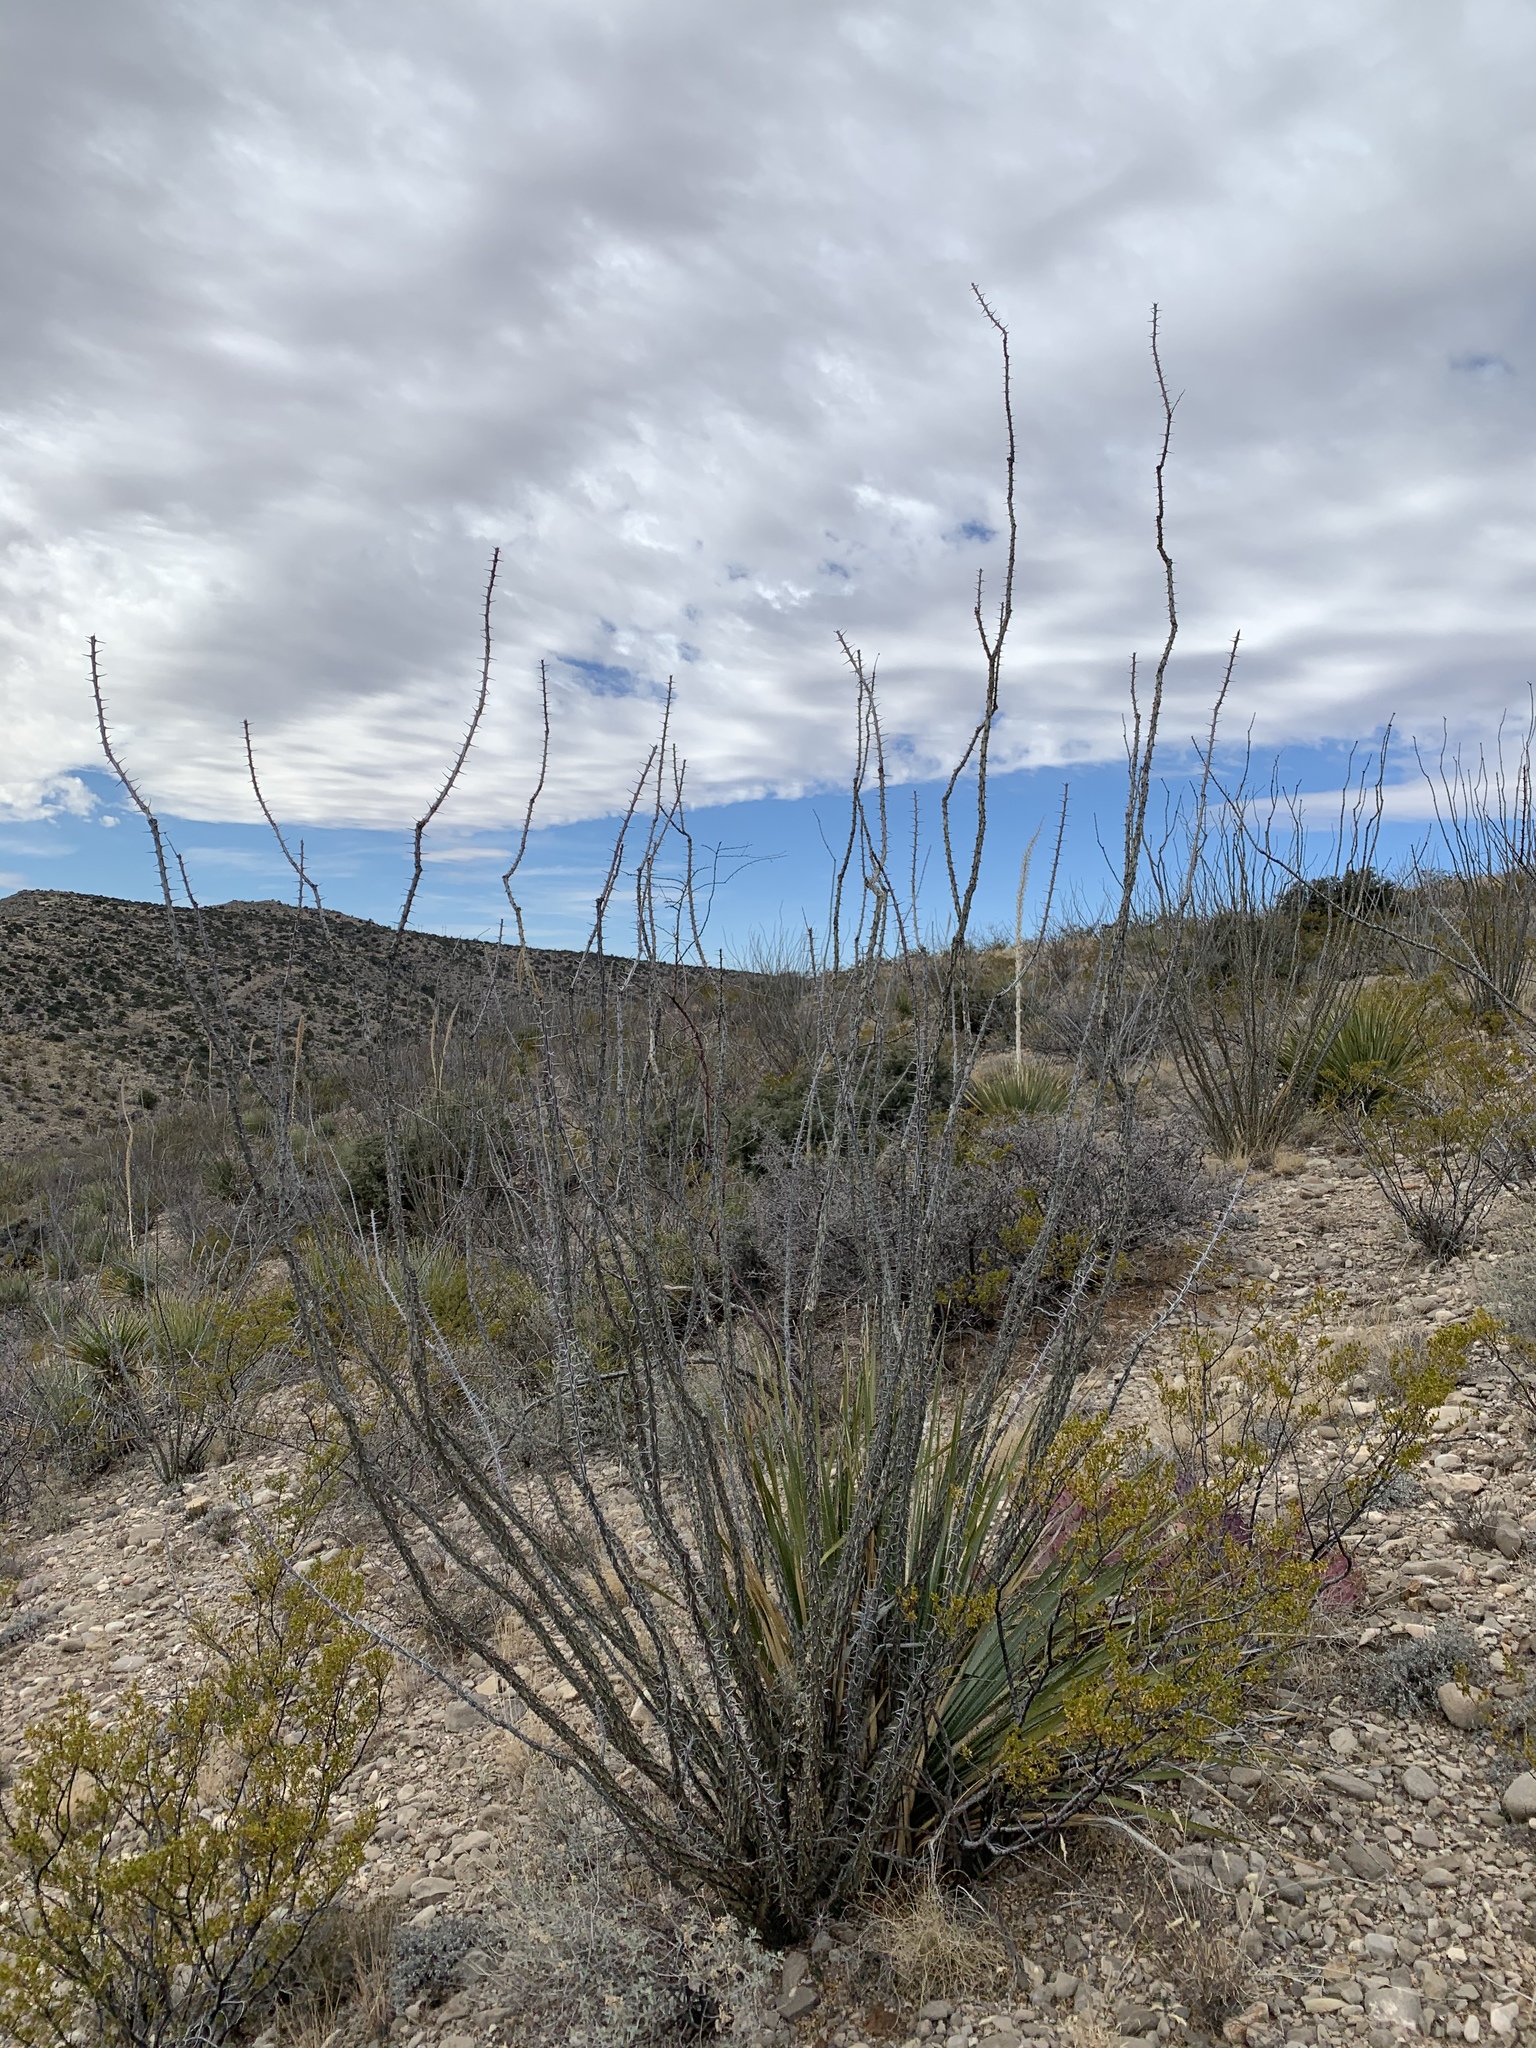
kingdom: Plantae
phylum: Tracheophyta
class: Magnoliopsida
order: Ericales
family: Fouquieriaceae
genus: Fouquieria
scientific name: Fouquieria splendens
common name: Vine-cactus
